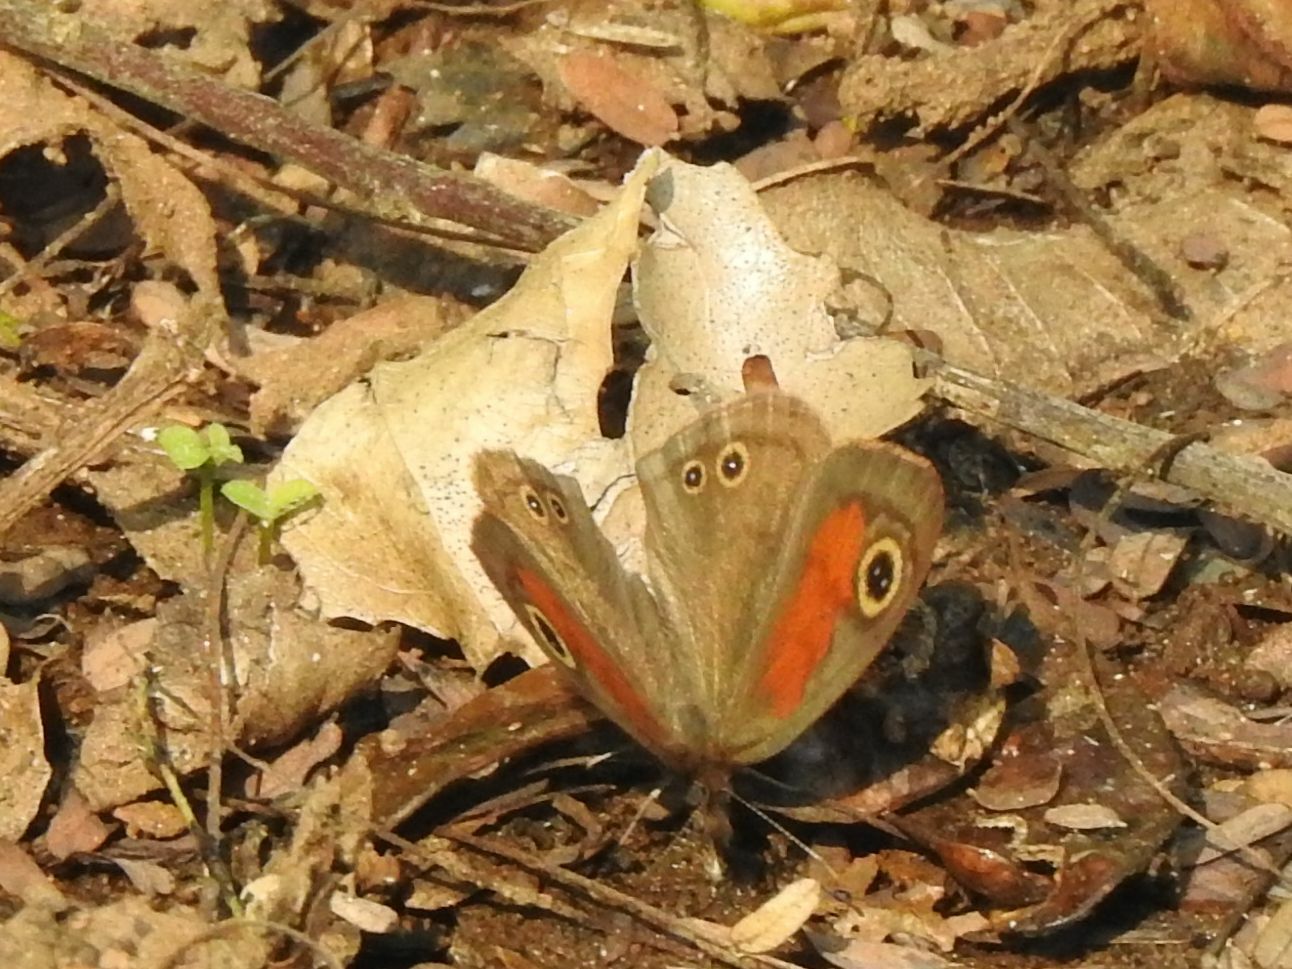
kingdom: Animalia
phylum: Arthropoda
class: Insecta
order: Lepidoptera
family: Nymphalidae
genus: Cassionympha
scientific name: Cassionympha cassius
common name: Rainforest brown
